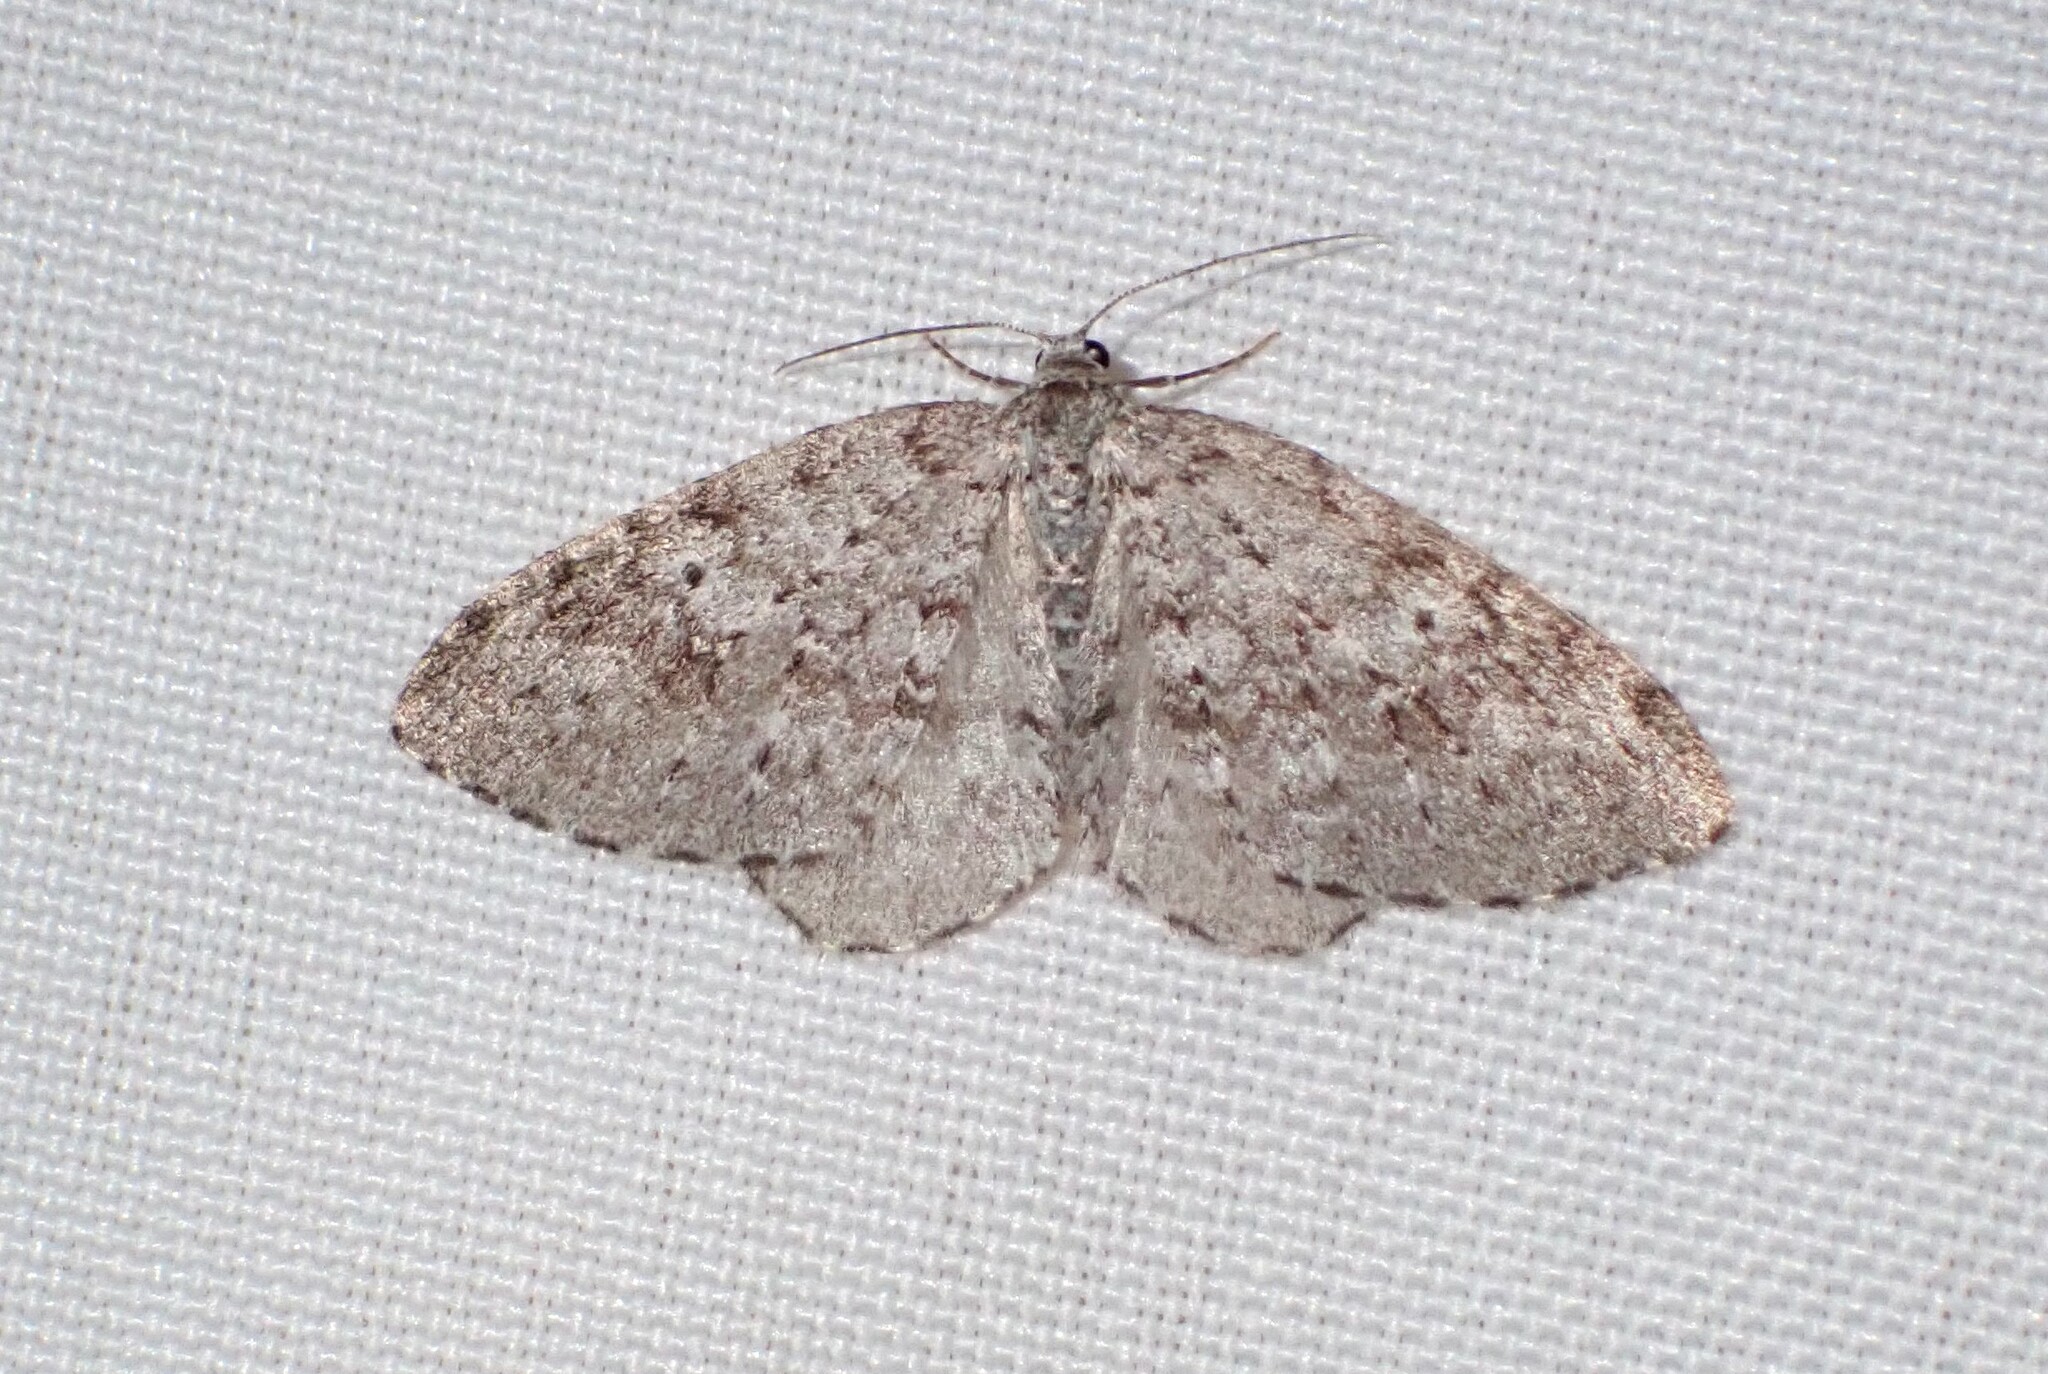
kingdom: Animalia
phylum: Arthropoda
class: Insecta
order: Lepidoptera
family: Geometridae
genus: Venusia
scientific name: Venusia pearsalli
